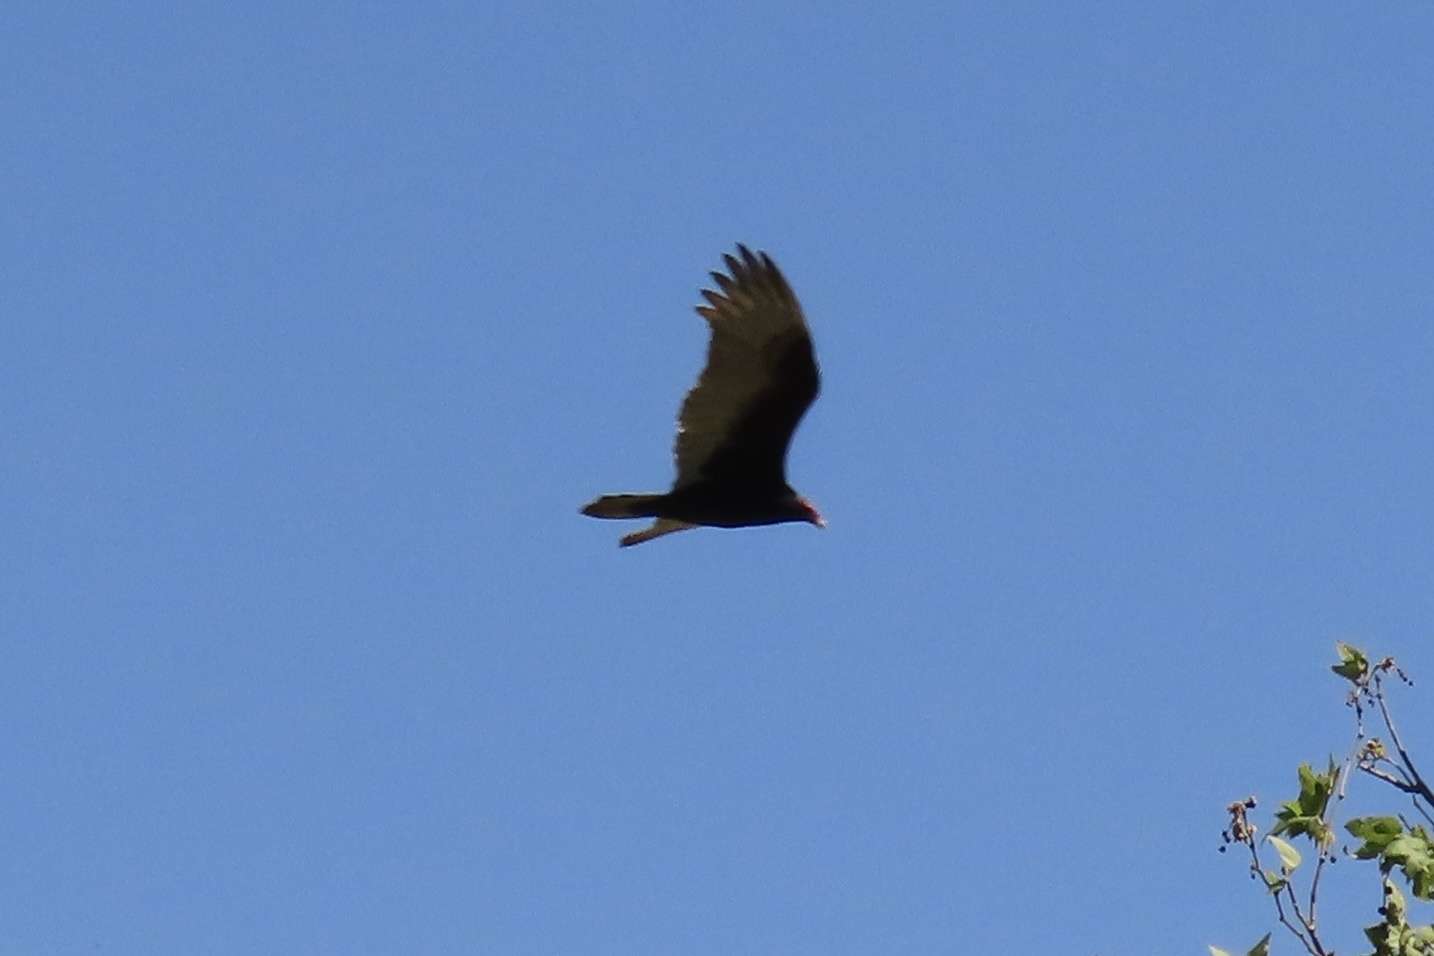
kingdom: Animalia
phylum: Chordata
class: Aves
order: Accipitriformes
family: Cathartidae
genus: Cathartes
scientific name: Cathartes aura
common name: Turkey vulture
